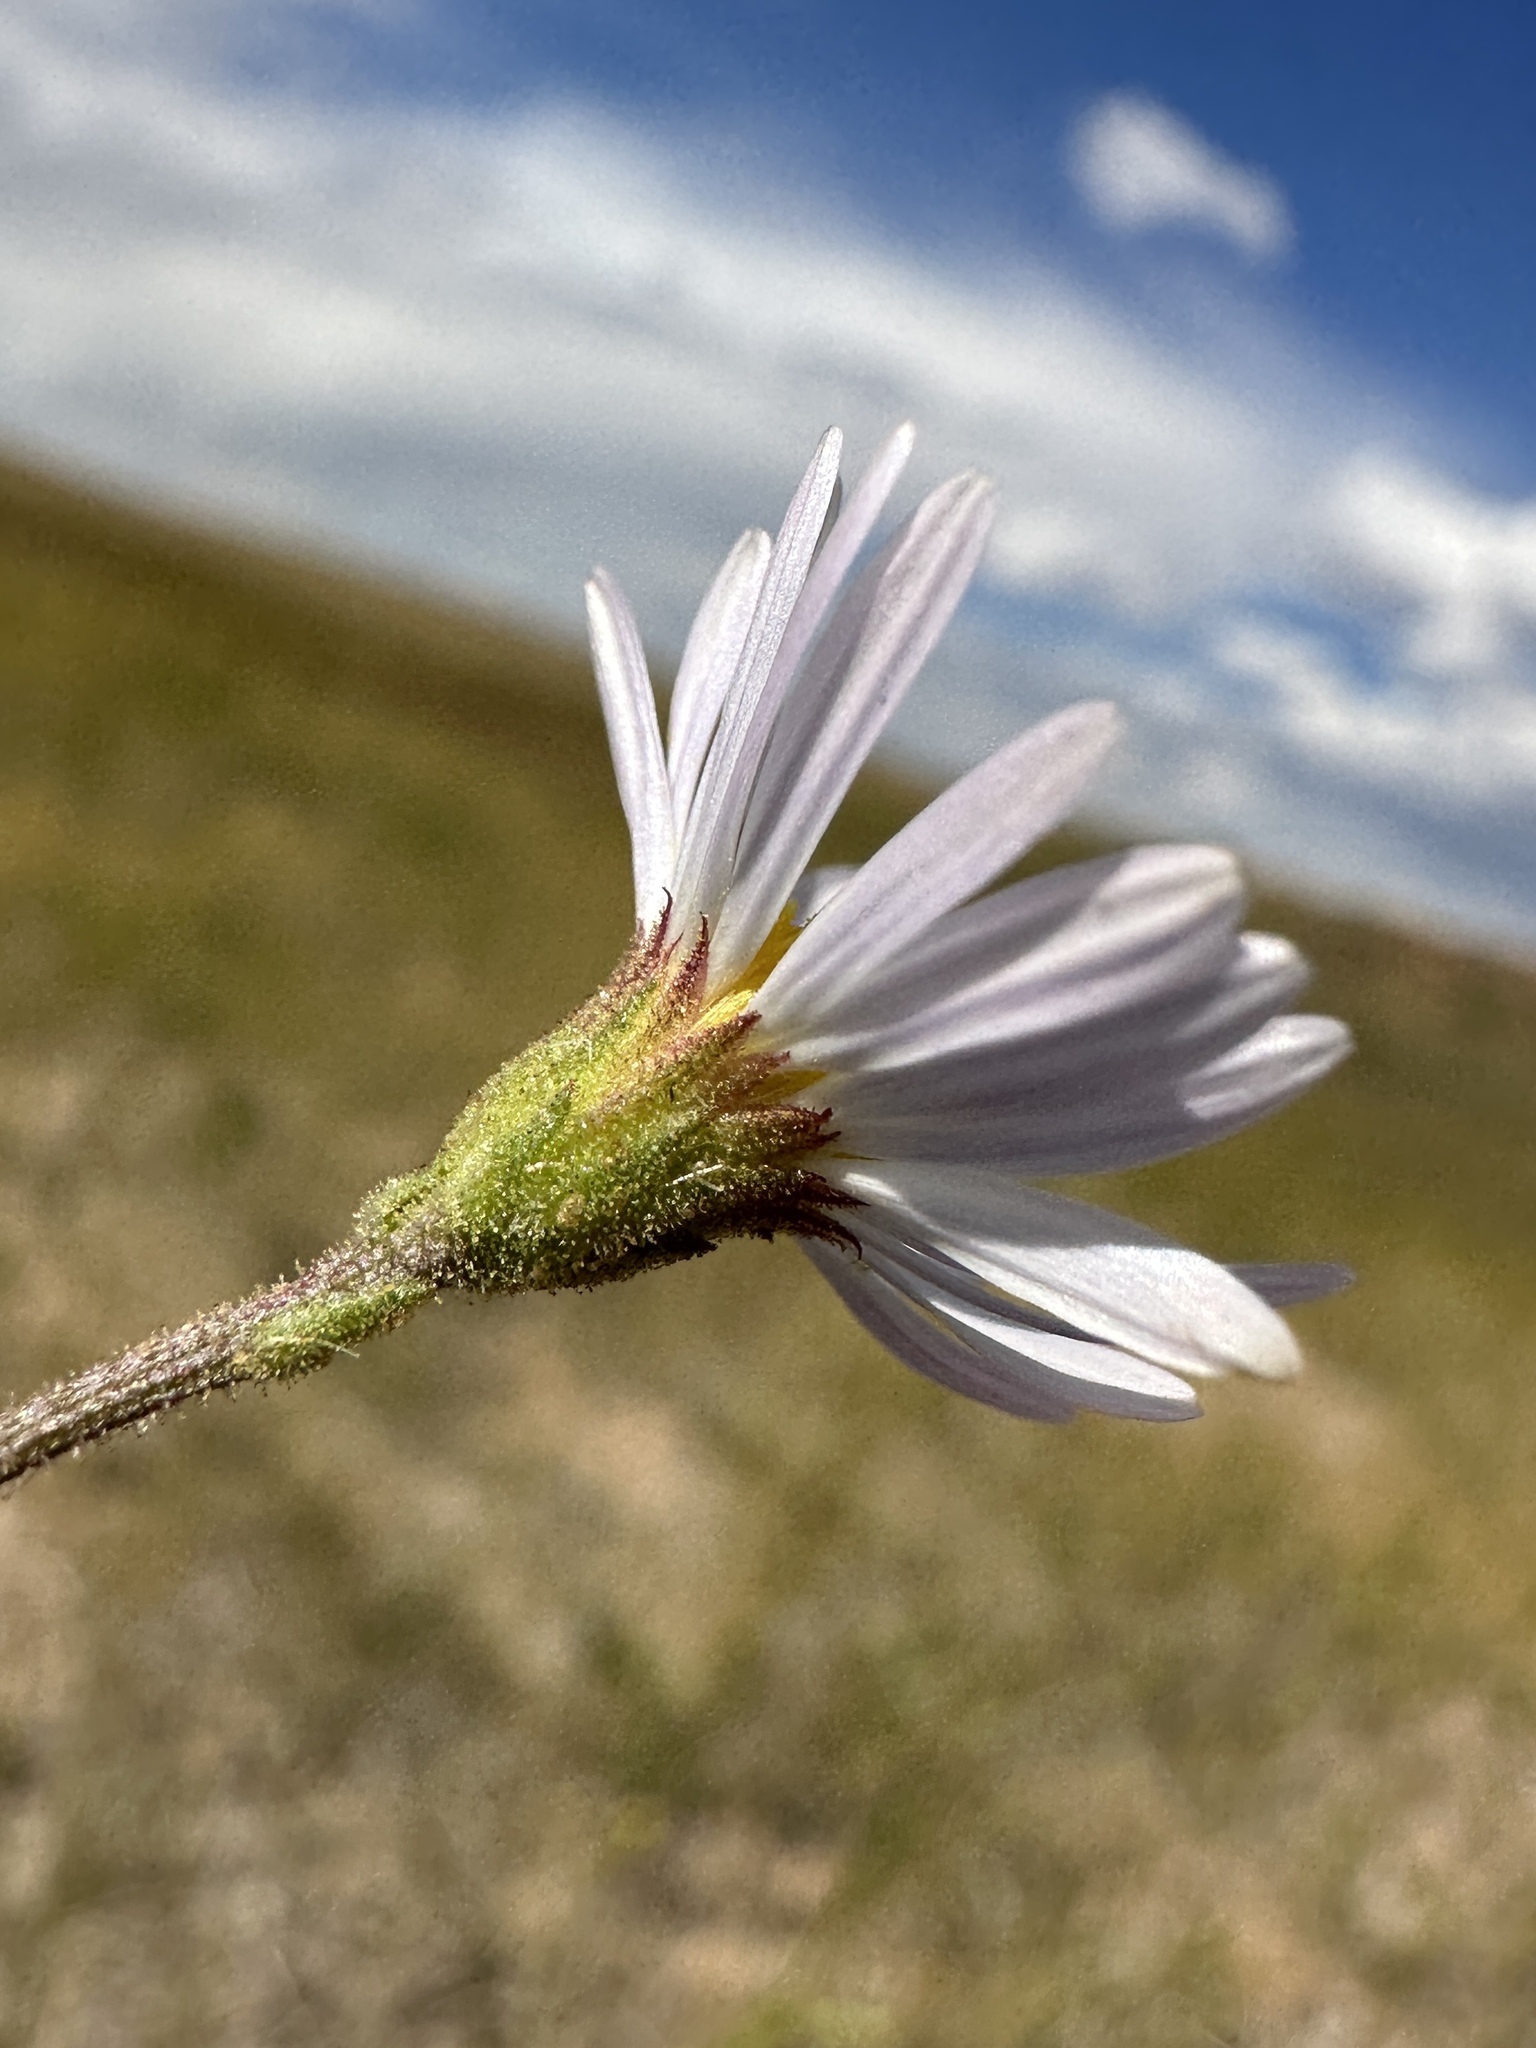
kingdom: Plantae
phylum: Tracheophyta
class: Magnoliopsida
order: Asterales
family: Asteraceae
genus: Almutaster
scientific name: Almutaster pauciflorus
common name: Alkaline aster
